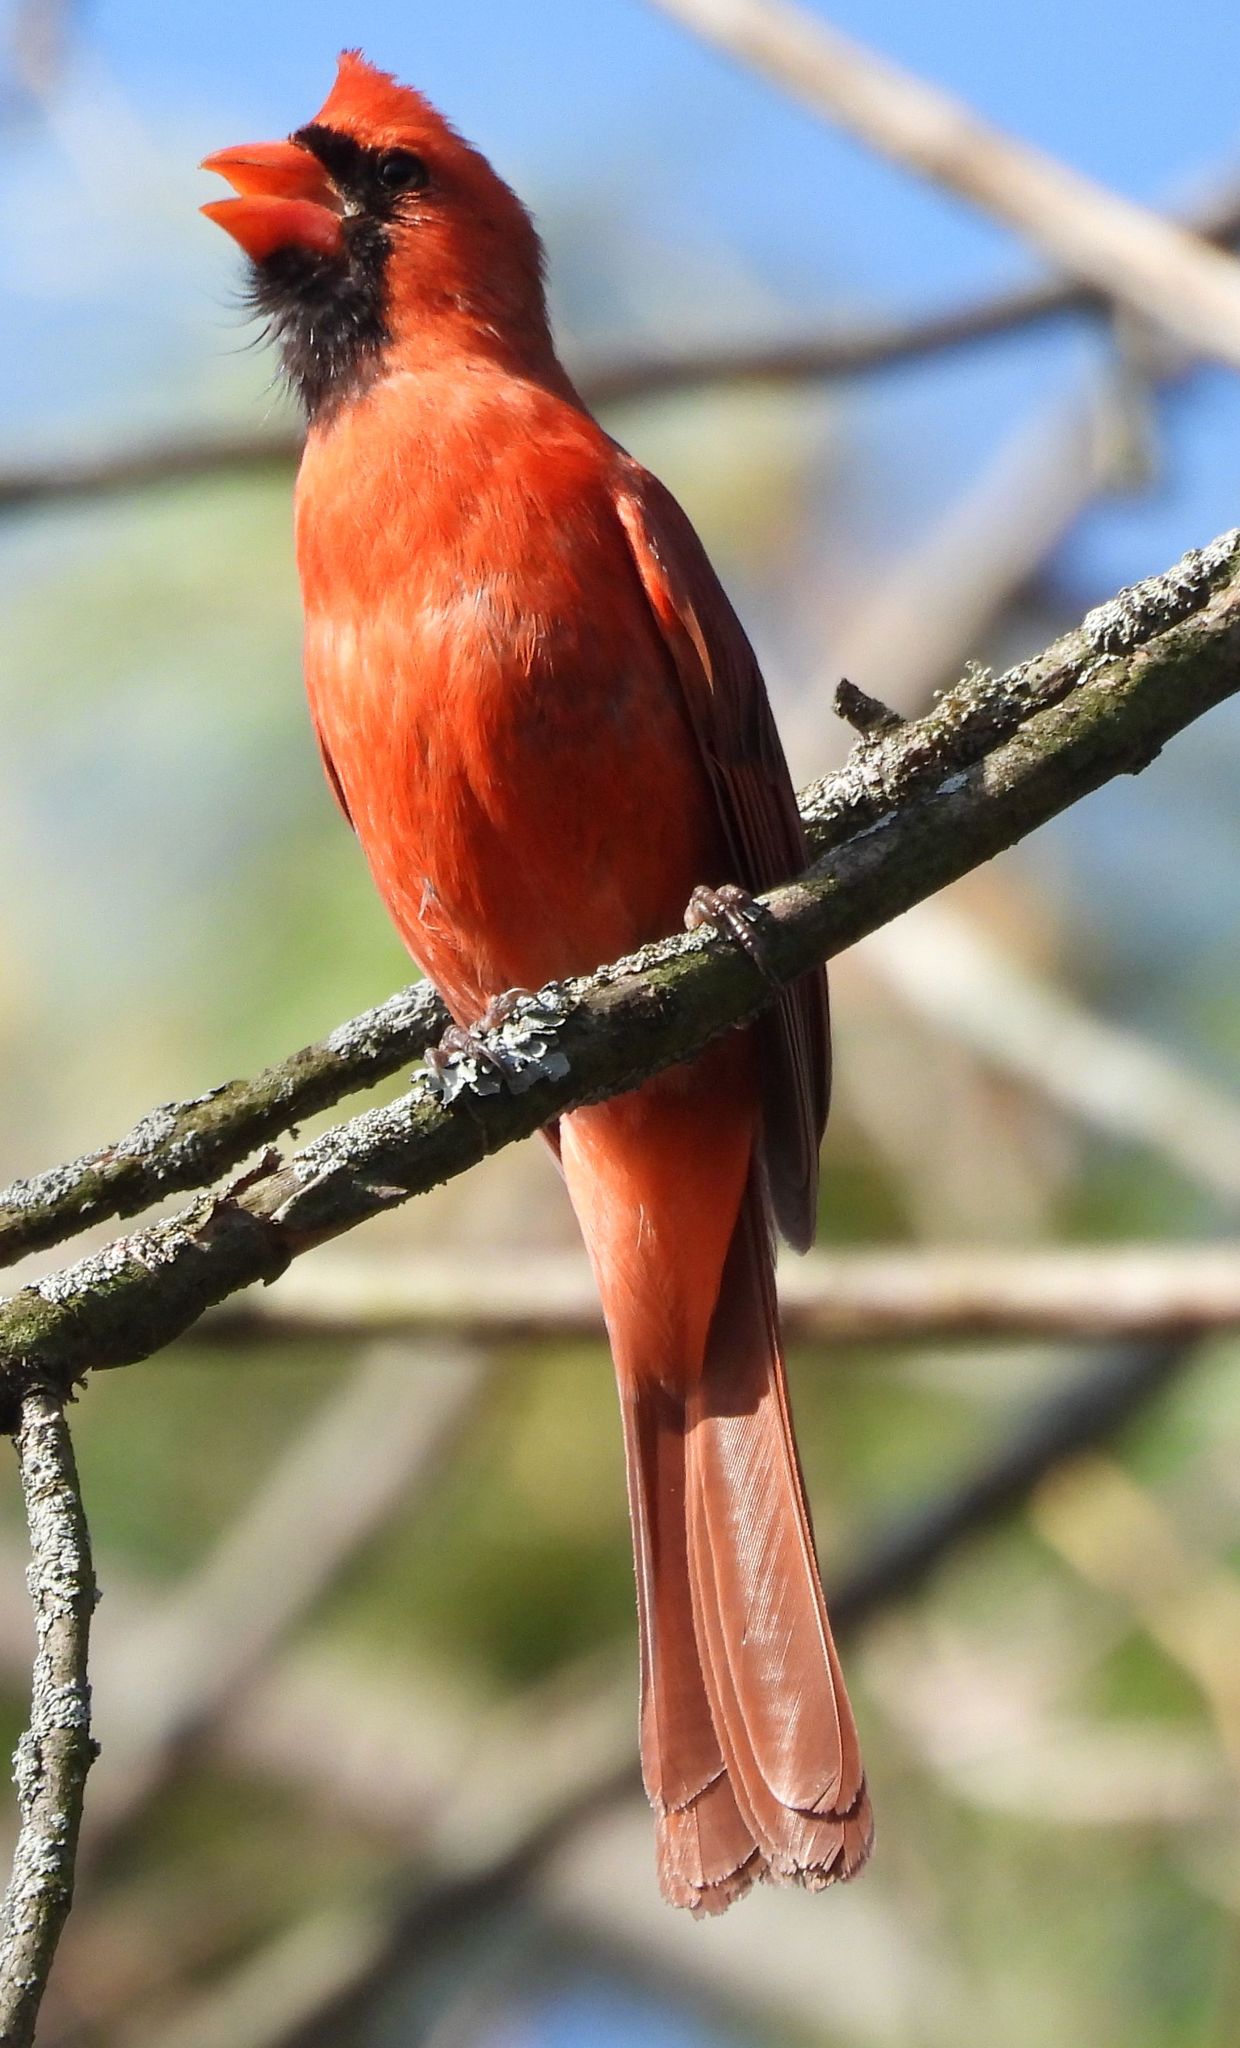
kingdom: Animalia
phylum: Chordata
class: Aves
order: Passeriformes
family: Cardinalidae
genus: Cardinalis
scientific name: Cardinalis cardinalis
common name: Northern cardinal
